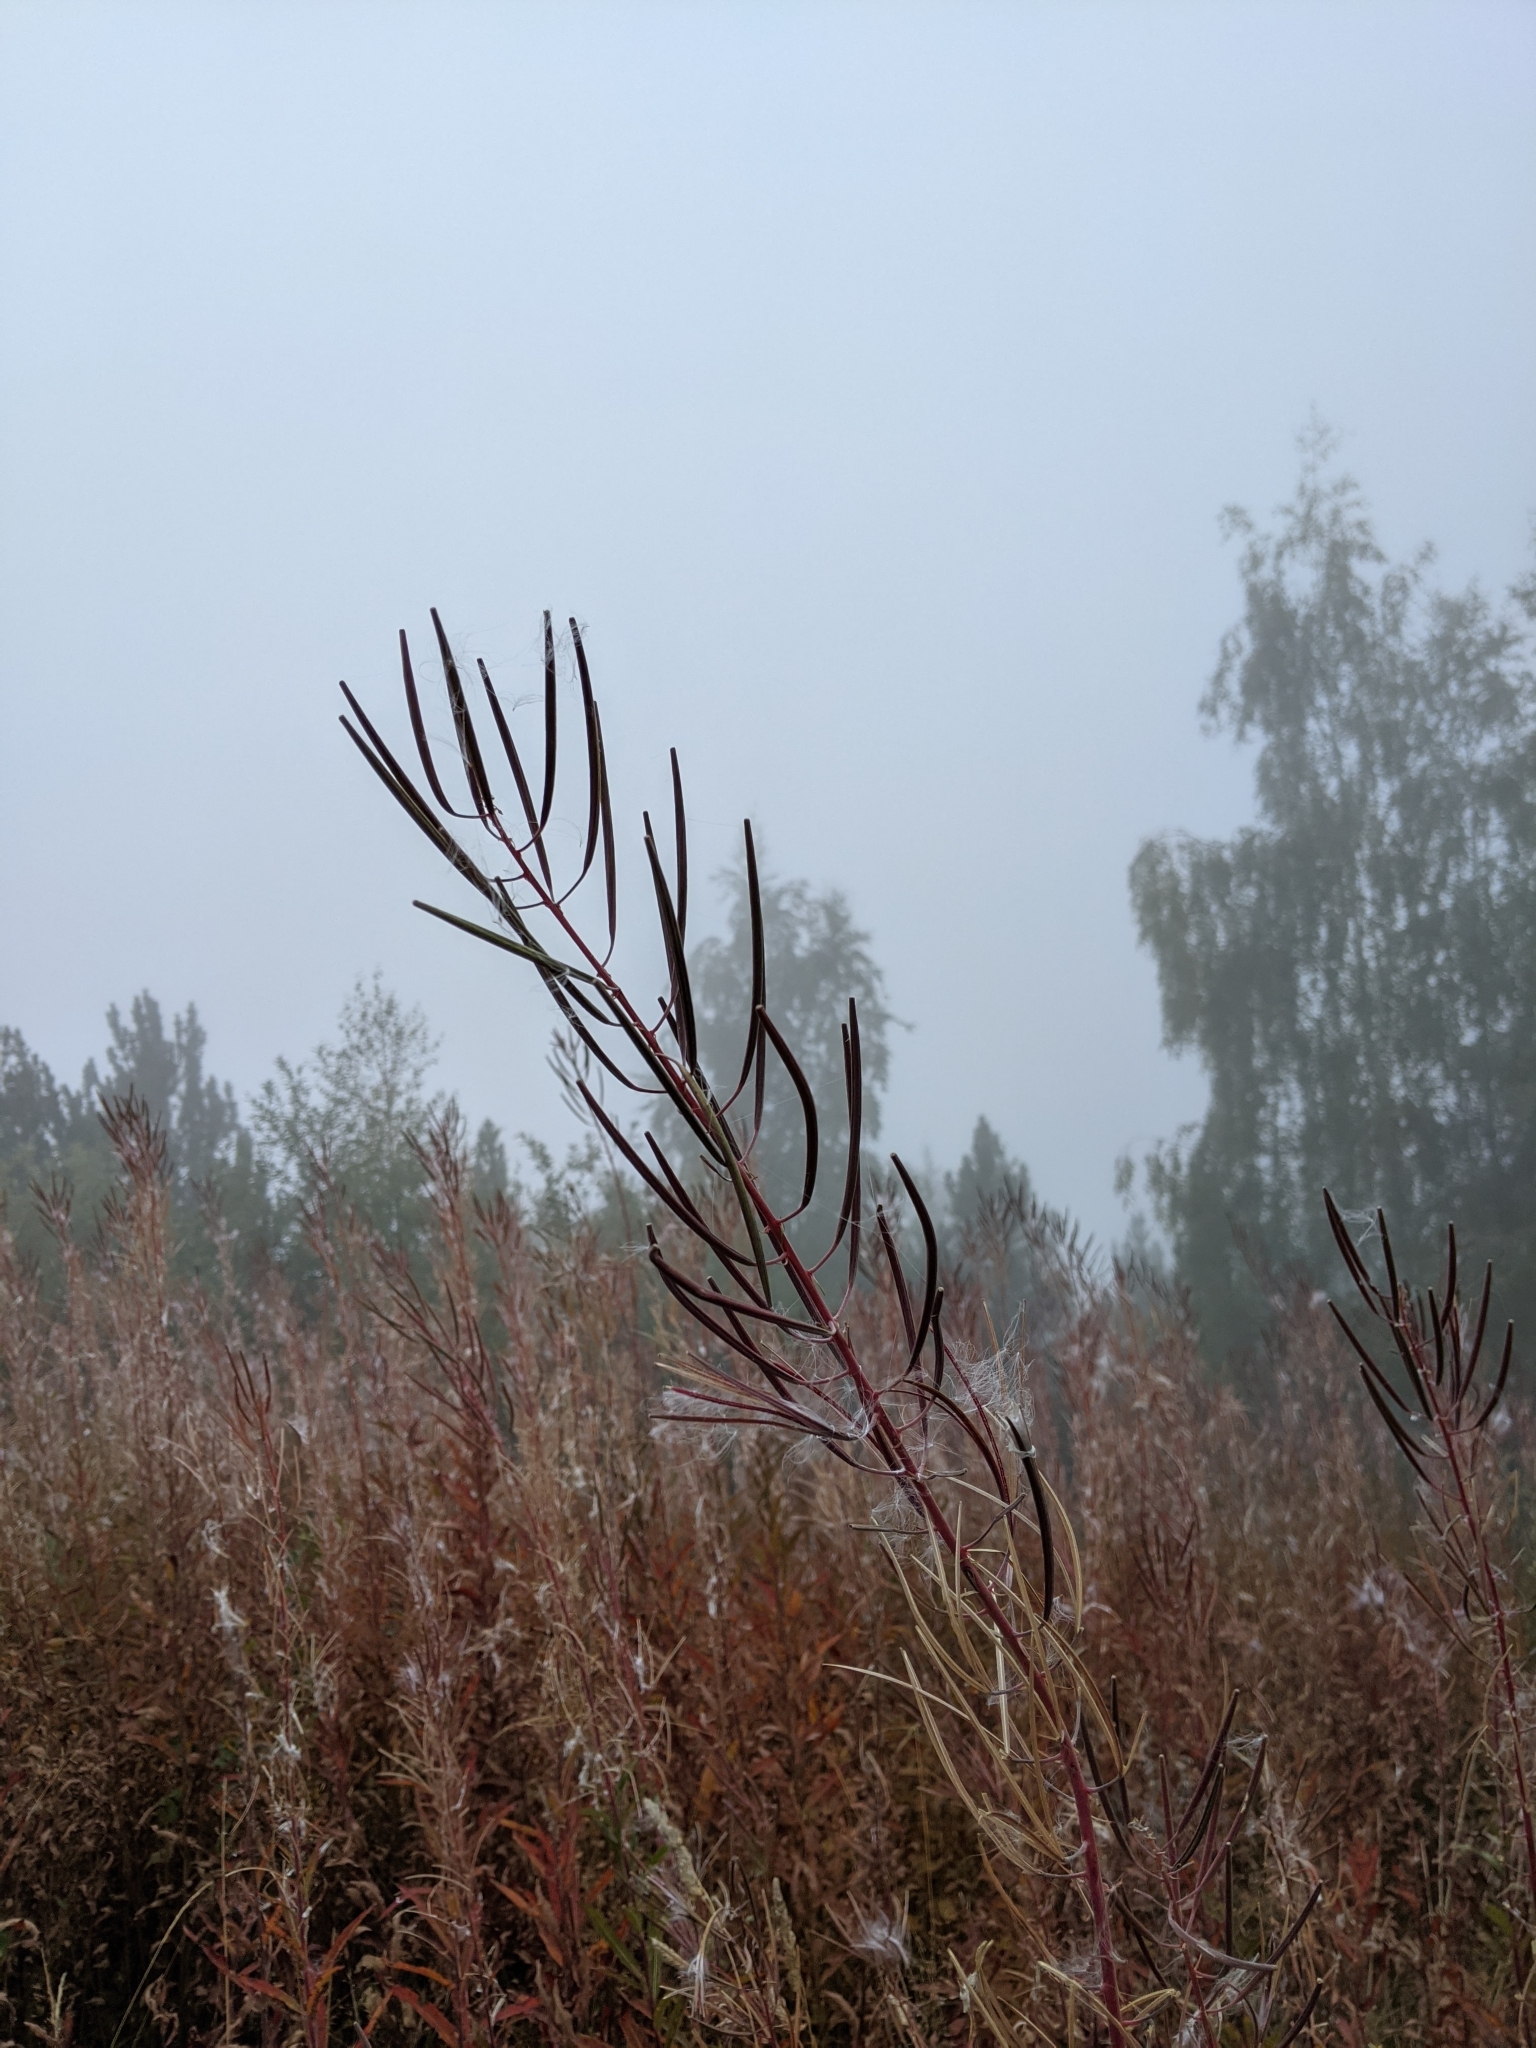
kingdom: Plantae
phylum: Tracheophyta
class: Magnoliopsida
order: Myrtales
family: Onagraceae
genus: Chamaenerion
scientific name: Chamaenerion angustifolium
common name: Fireweed
